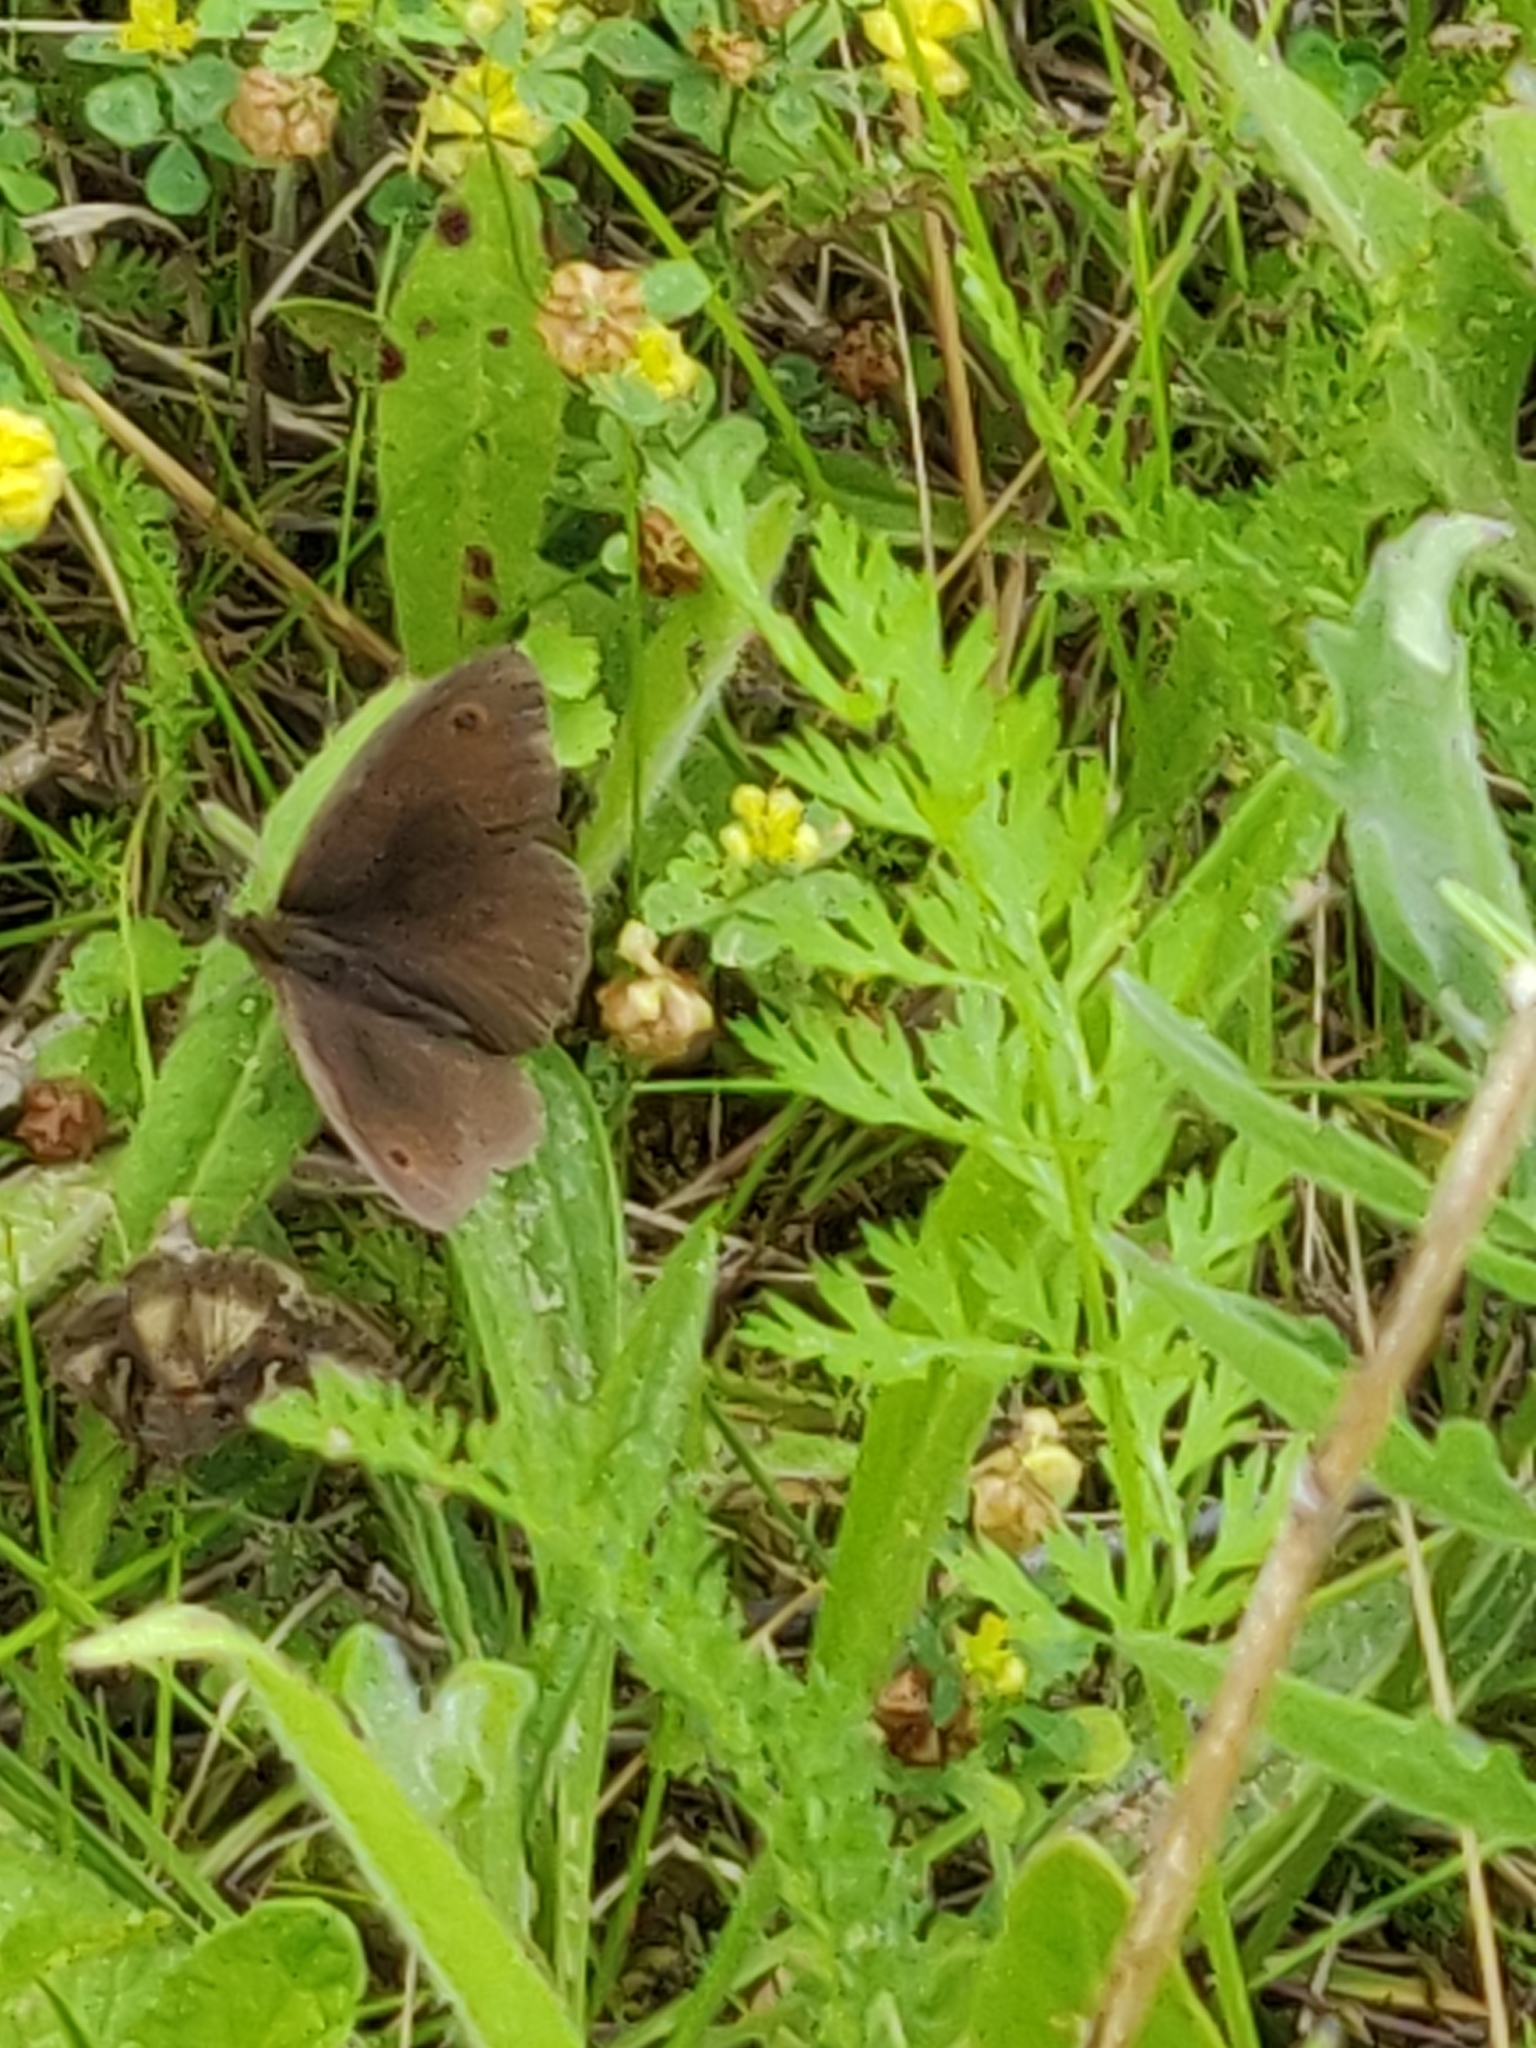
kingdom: Animalia
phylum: Arthropoda
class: Insecta
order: Lepidoptera
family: Nymphalidae
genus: Maniola
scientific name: Maniola jurtina
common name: Meadow brown
